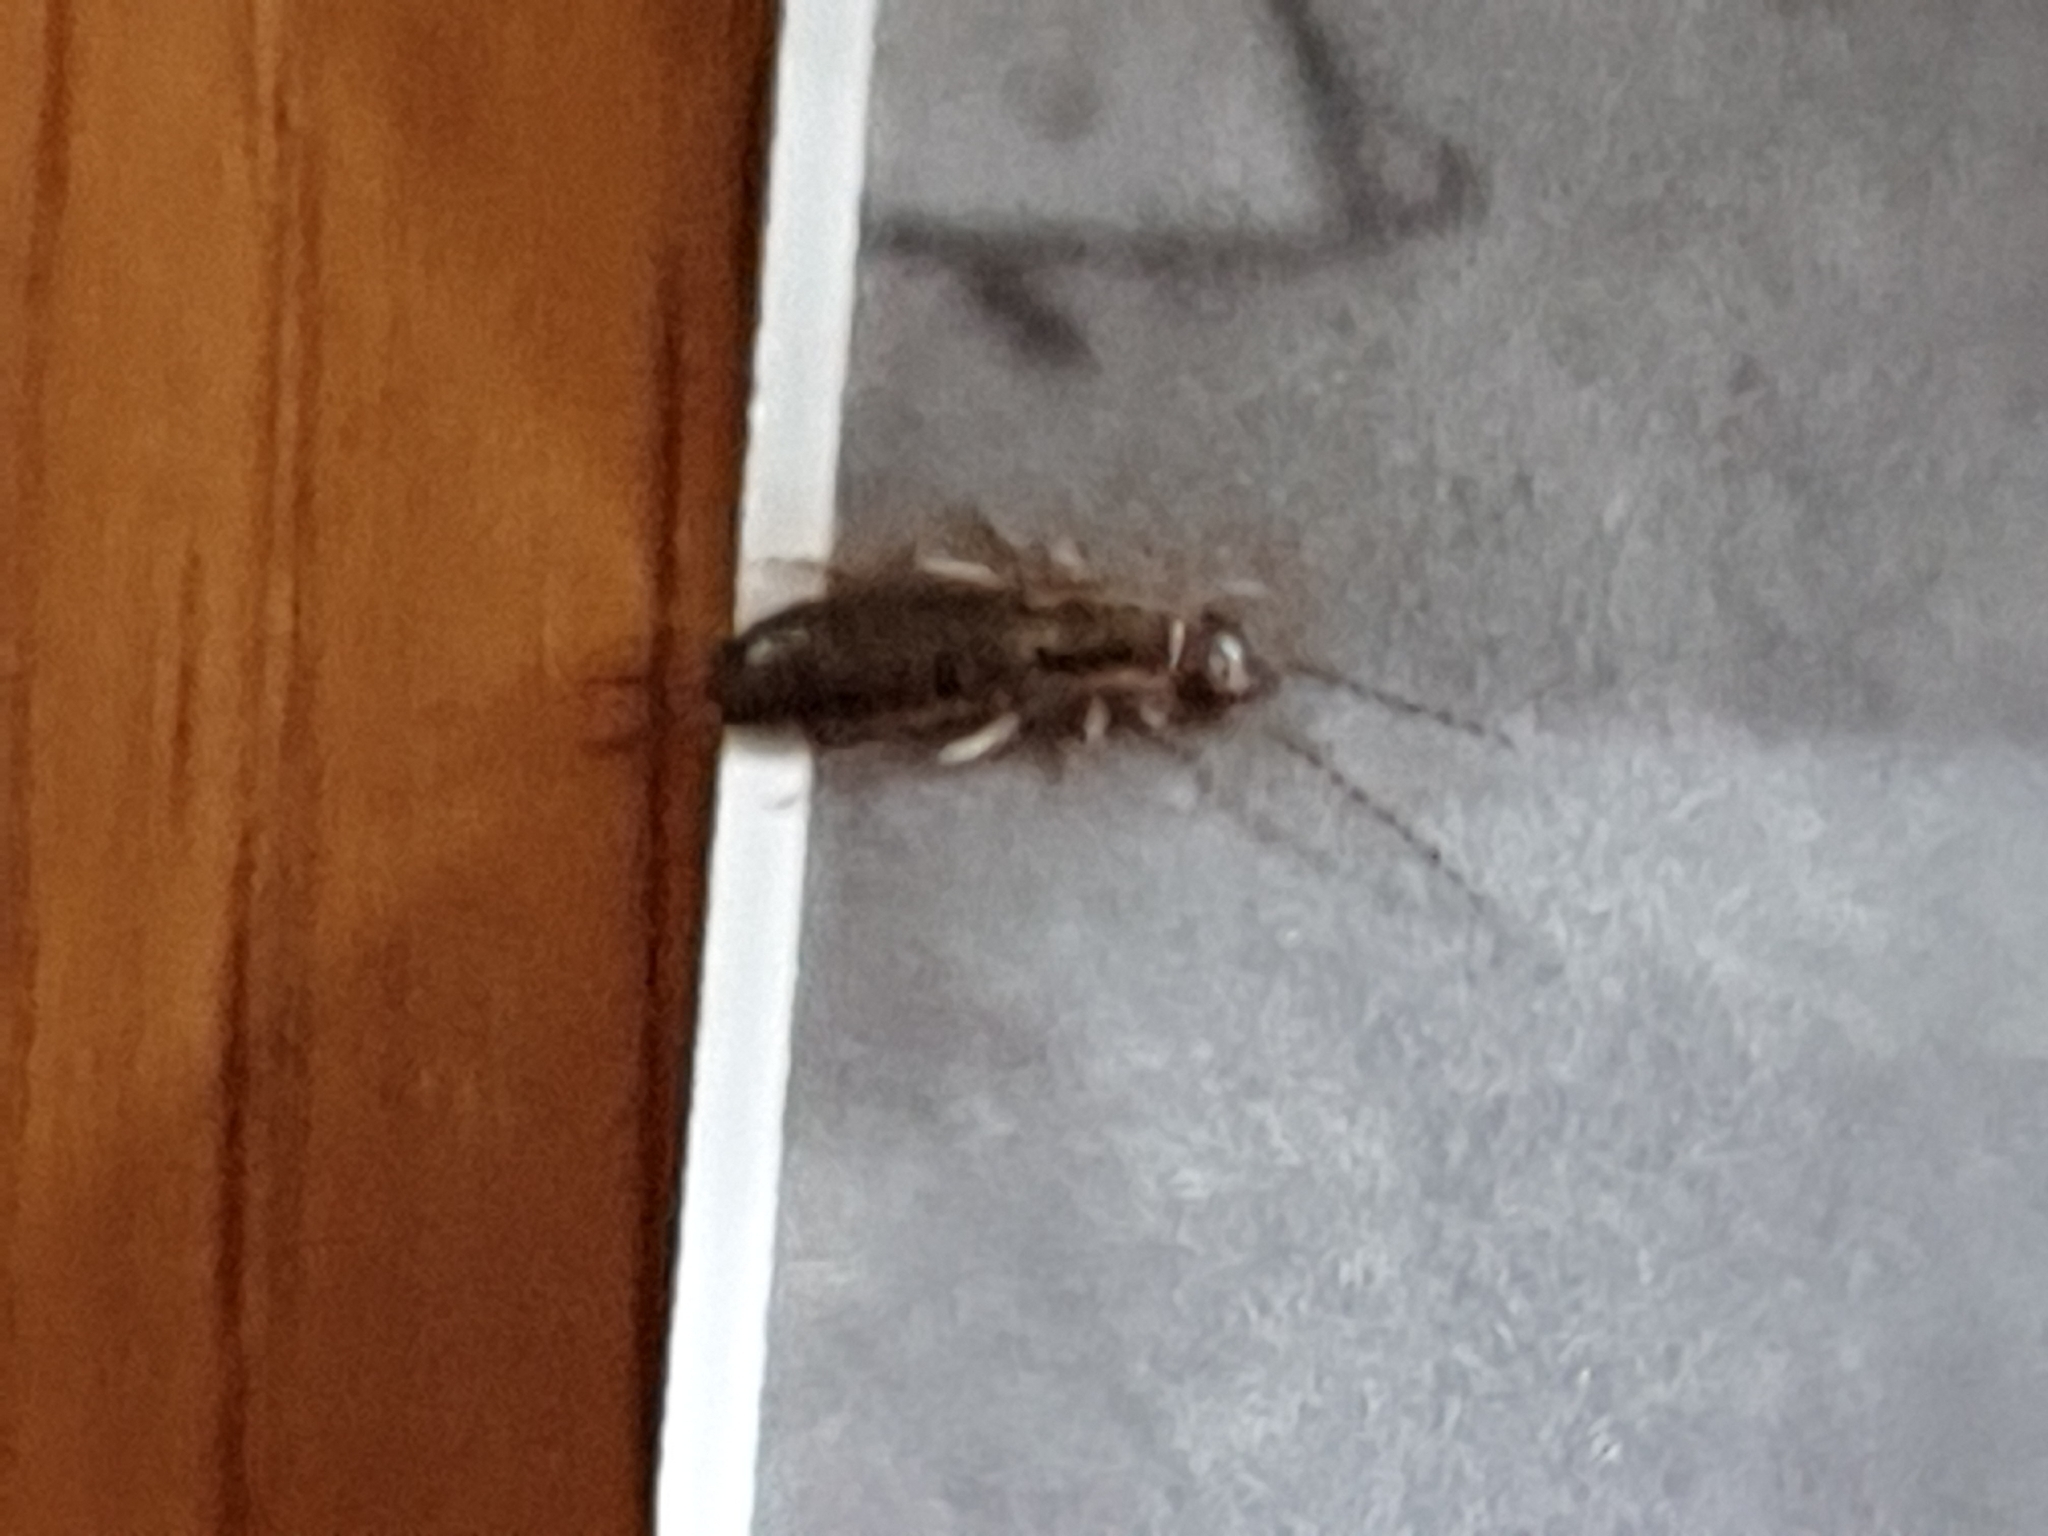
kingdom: Animalia
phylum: Arthropoda
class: Insecta
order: Dermaptera
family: Forficulidae
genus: Forficula
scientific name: Forficula
